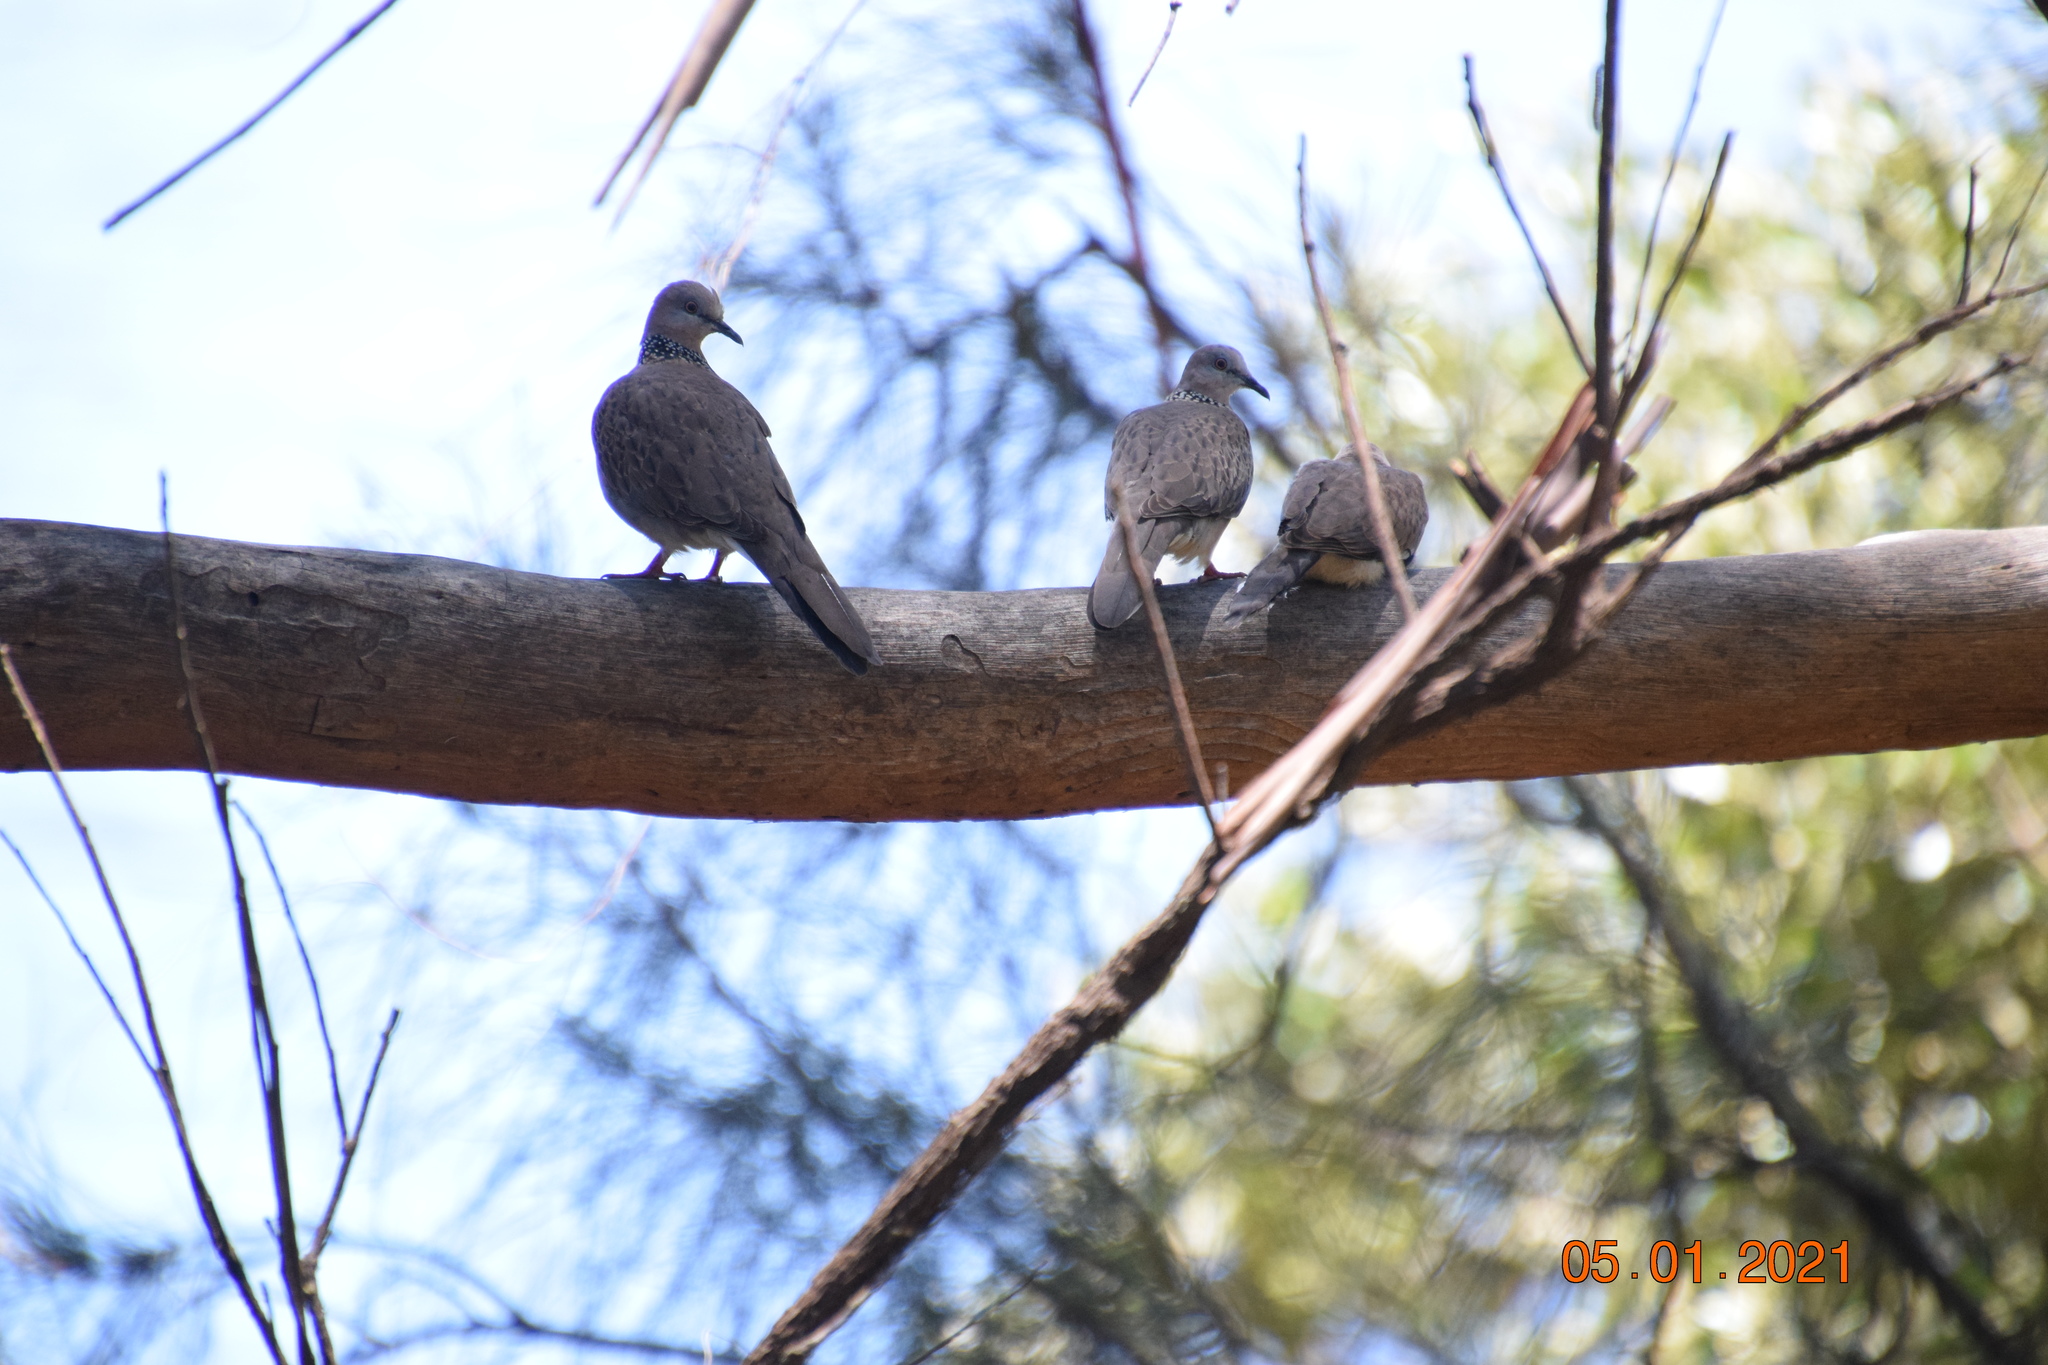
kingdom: Animalia
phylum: Chordata
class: Aves
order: Columbiformes
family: Columbidae
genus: Spilopelia
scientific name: Spilopelia chinensis
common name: Spotted dove
